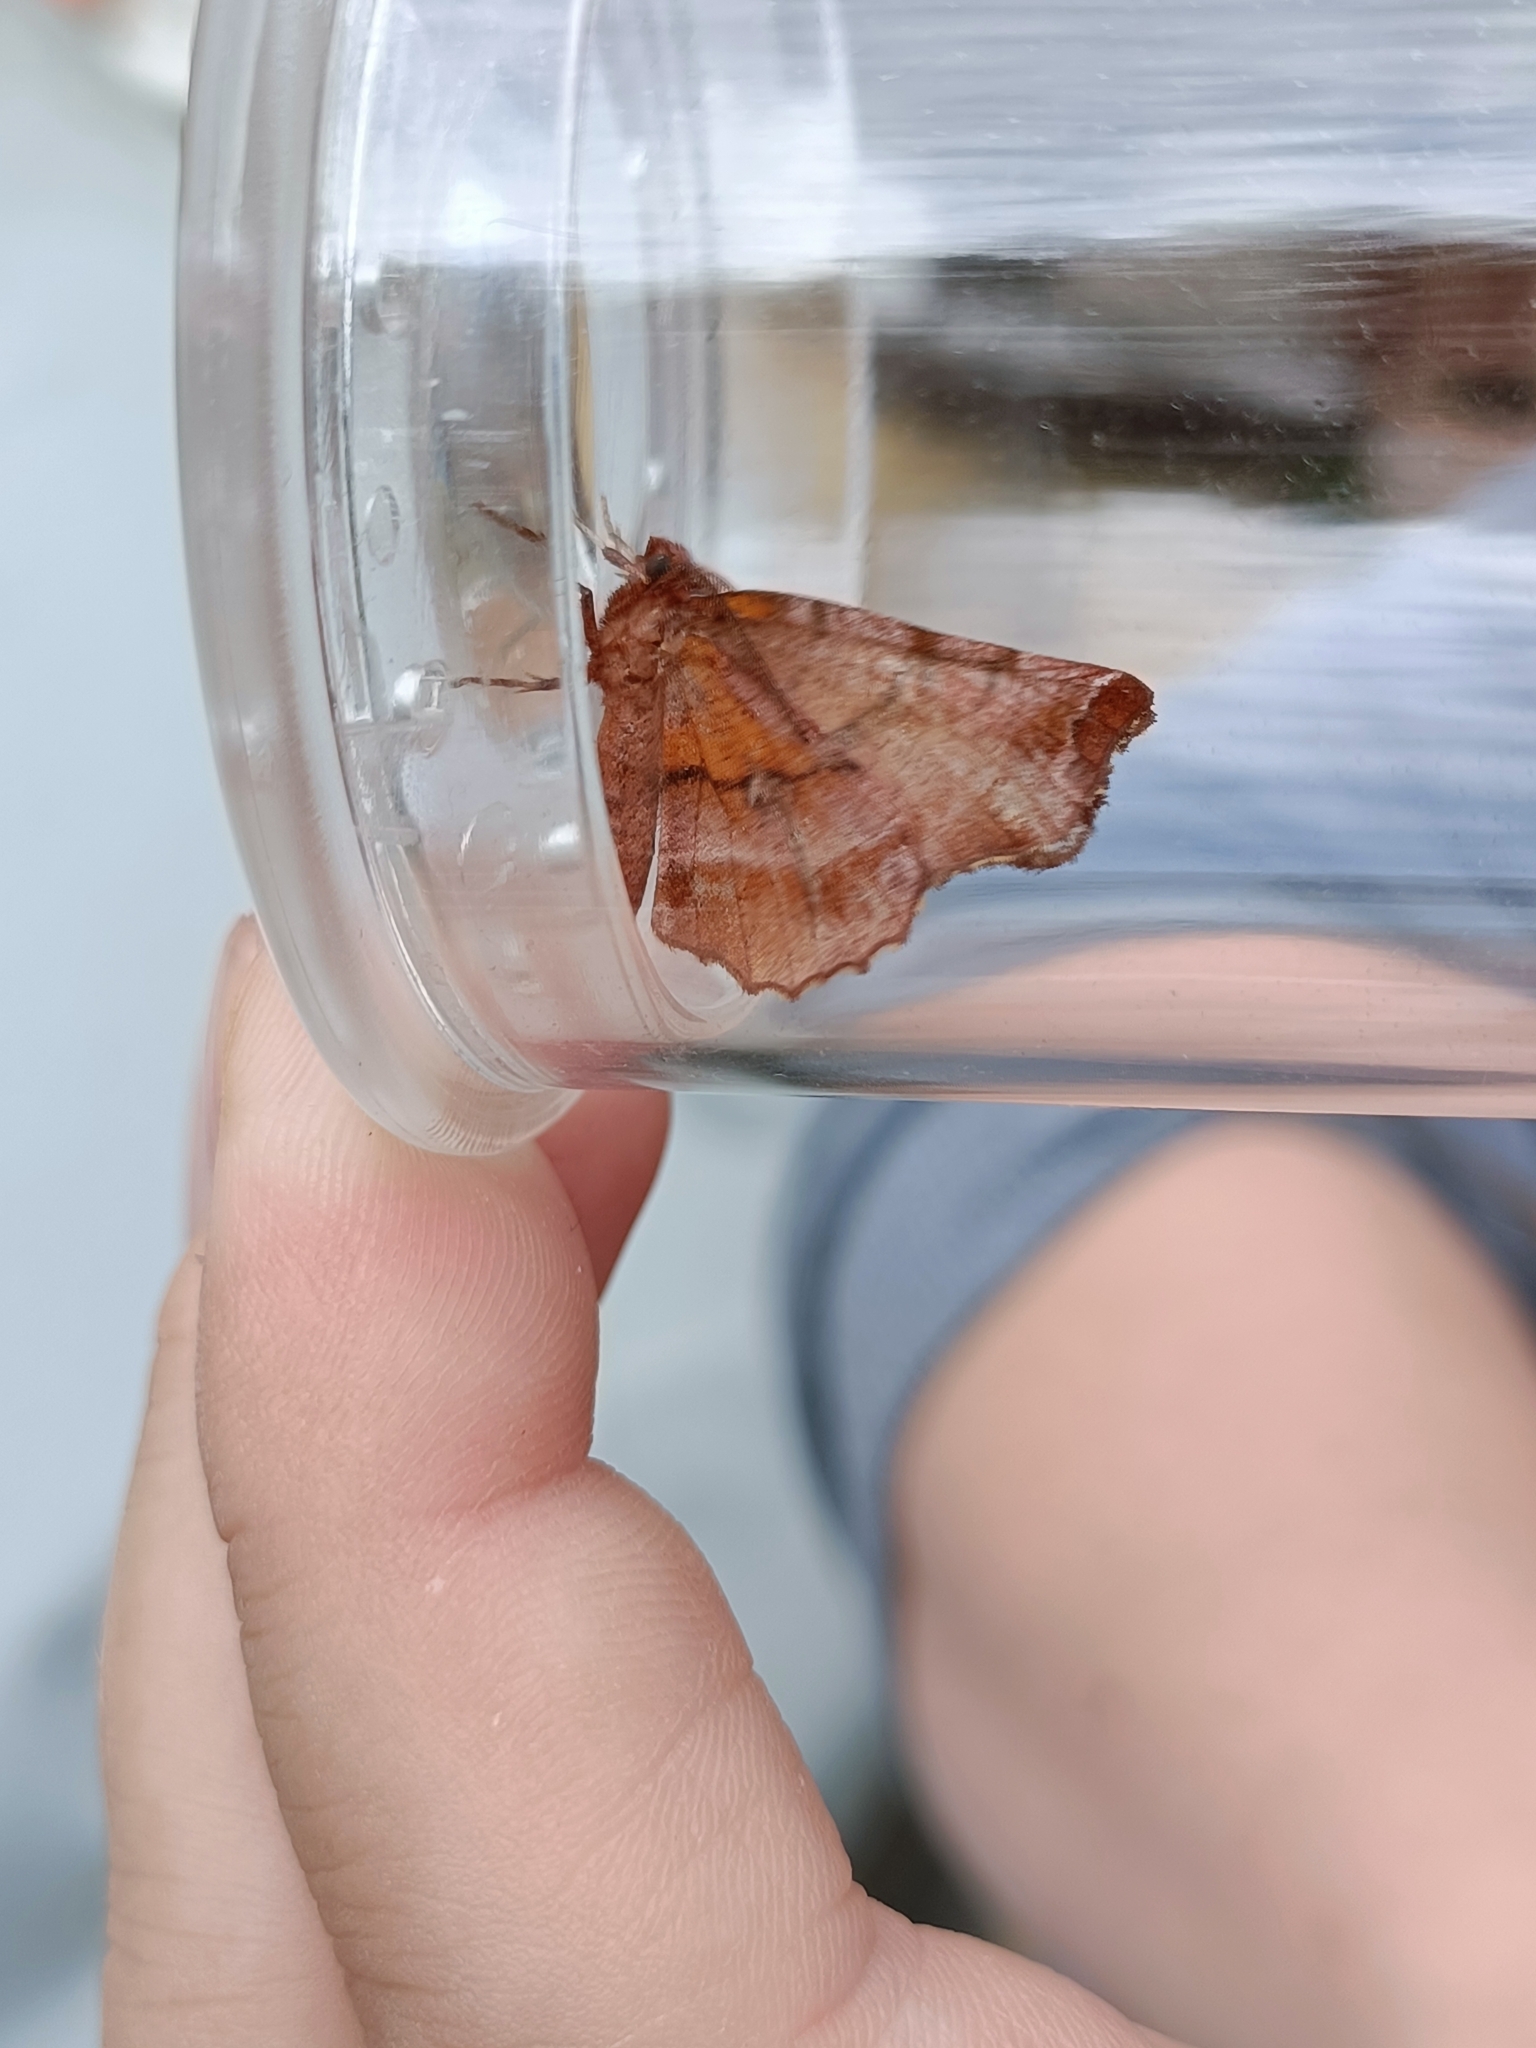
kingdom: Animalia
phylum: Arthropoda
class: Insecta
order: Lepidoptera
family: Geometridae
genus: Selenia
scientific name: Selenia dentaria
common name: Early thorn
